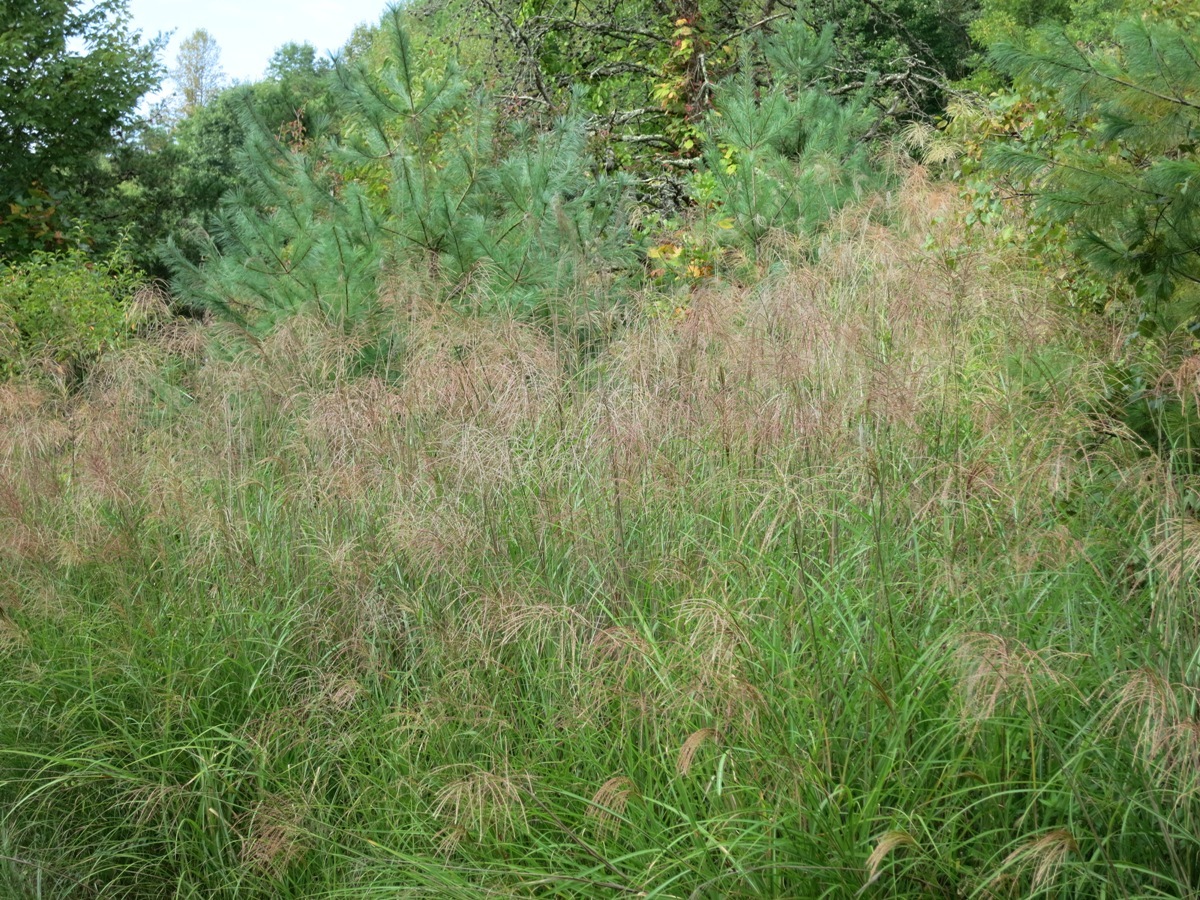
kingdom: Plantae
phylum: Tracheophyta
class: Liliopsida
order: Poales
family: Poaceae
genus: Miscanthus
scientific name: Miscanthus sinensis
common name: Chinese silvergrass
